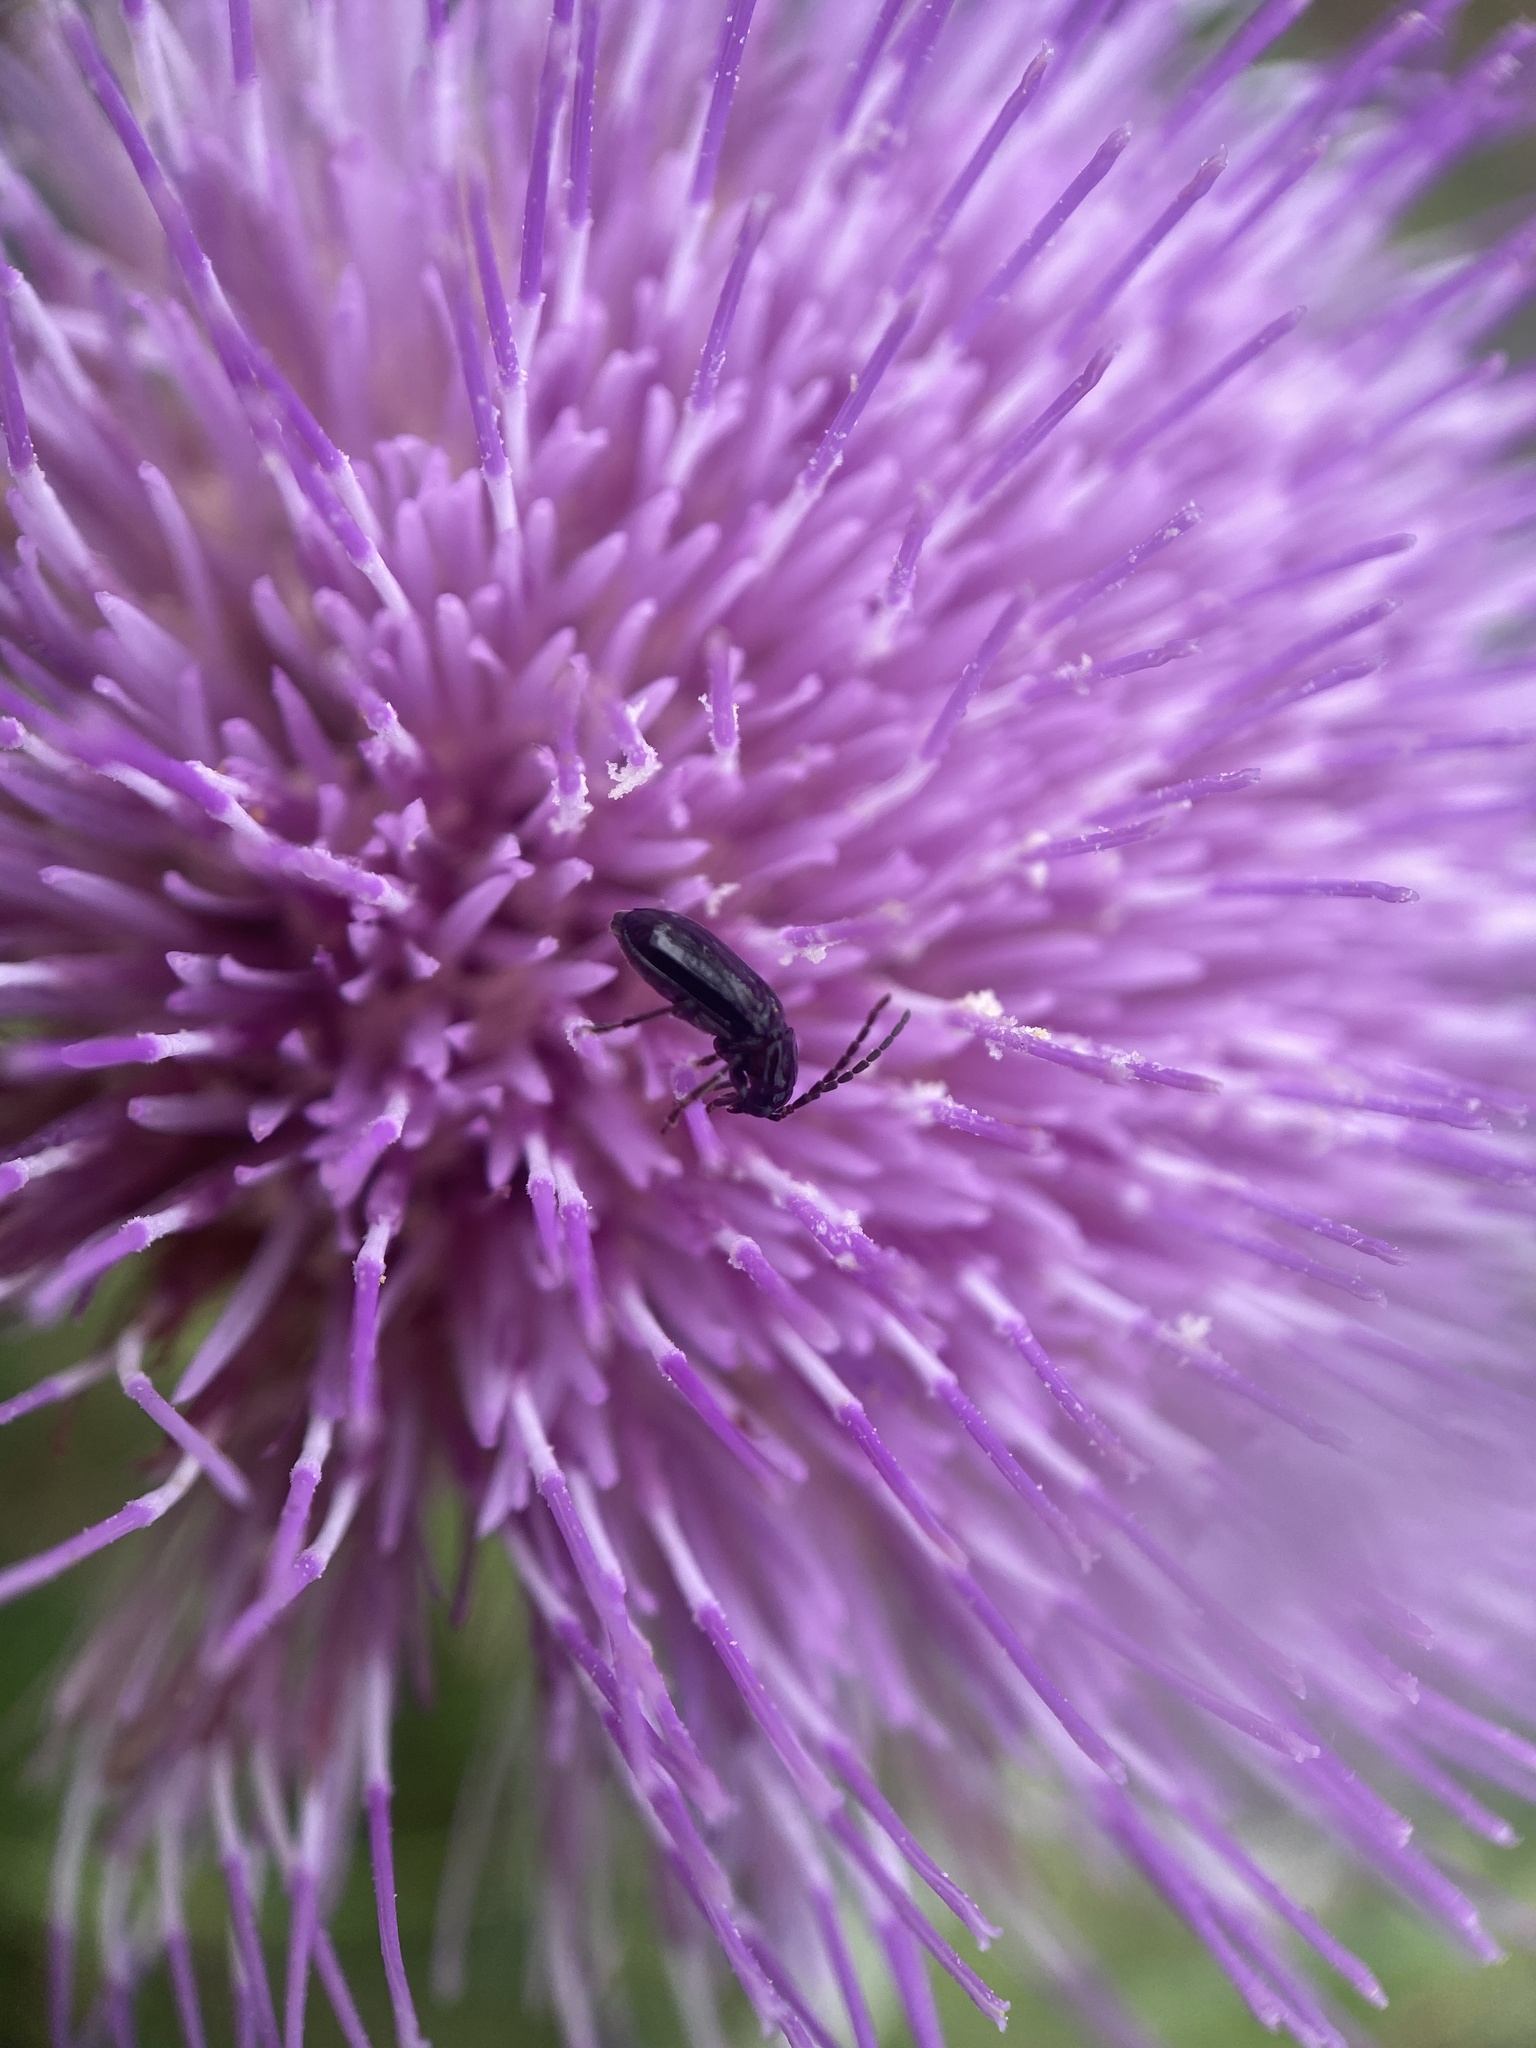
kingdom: Animalia
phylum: Arthropoda
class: Insecta
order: Coleoptera
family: Chrysomelidae
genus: Diabrotica
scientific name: Diabrotica cristata
